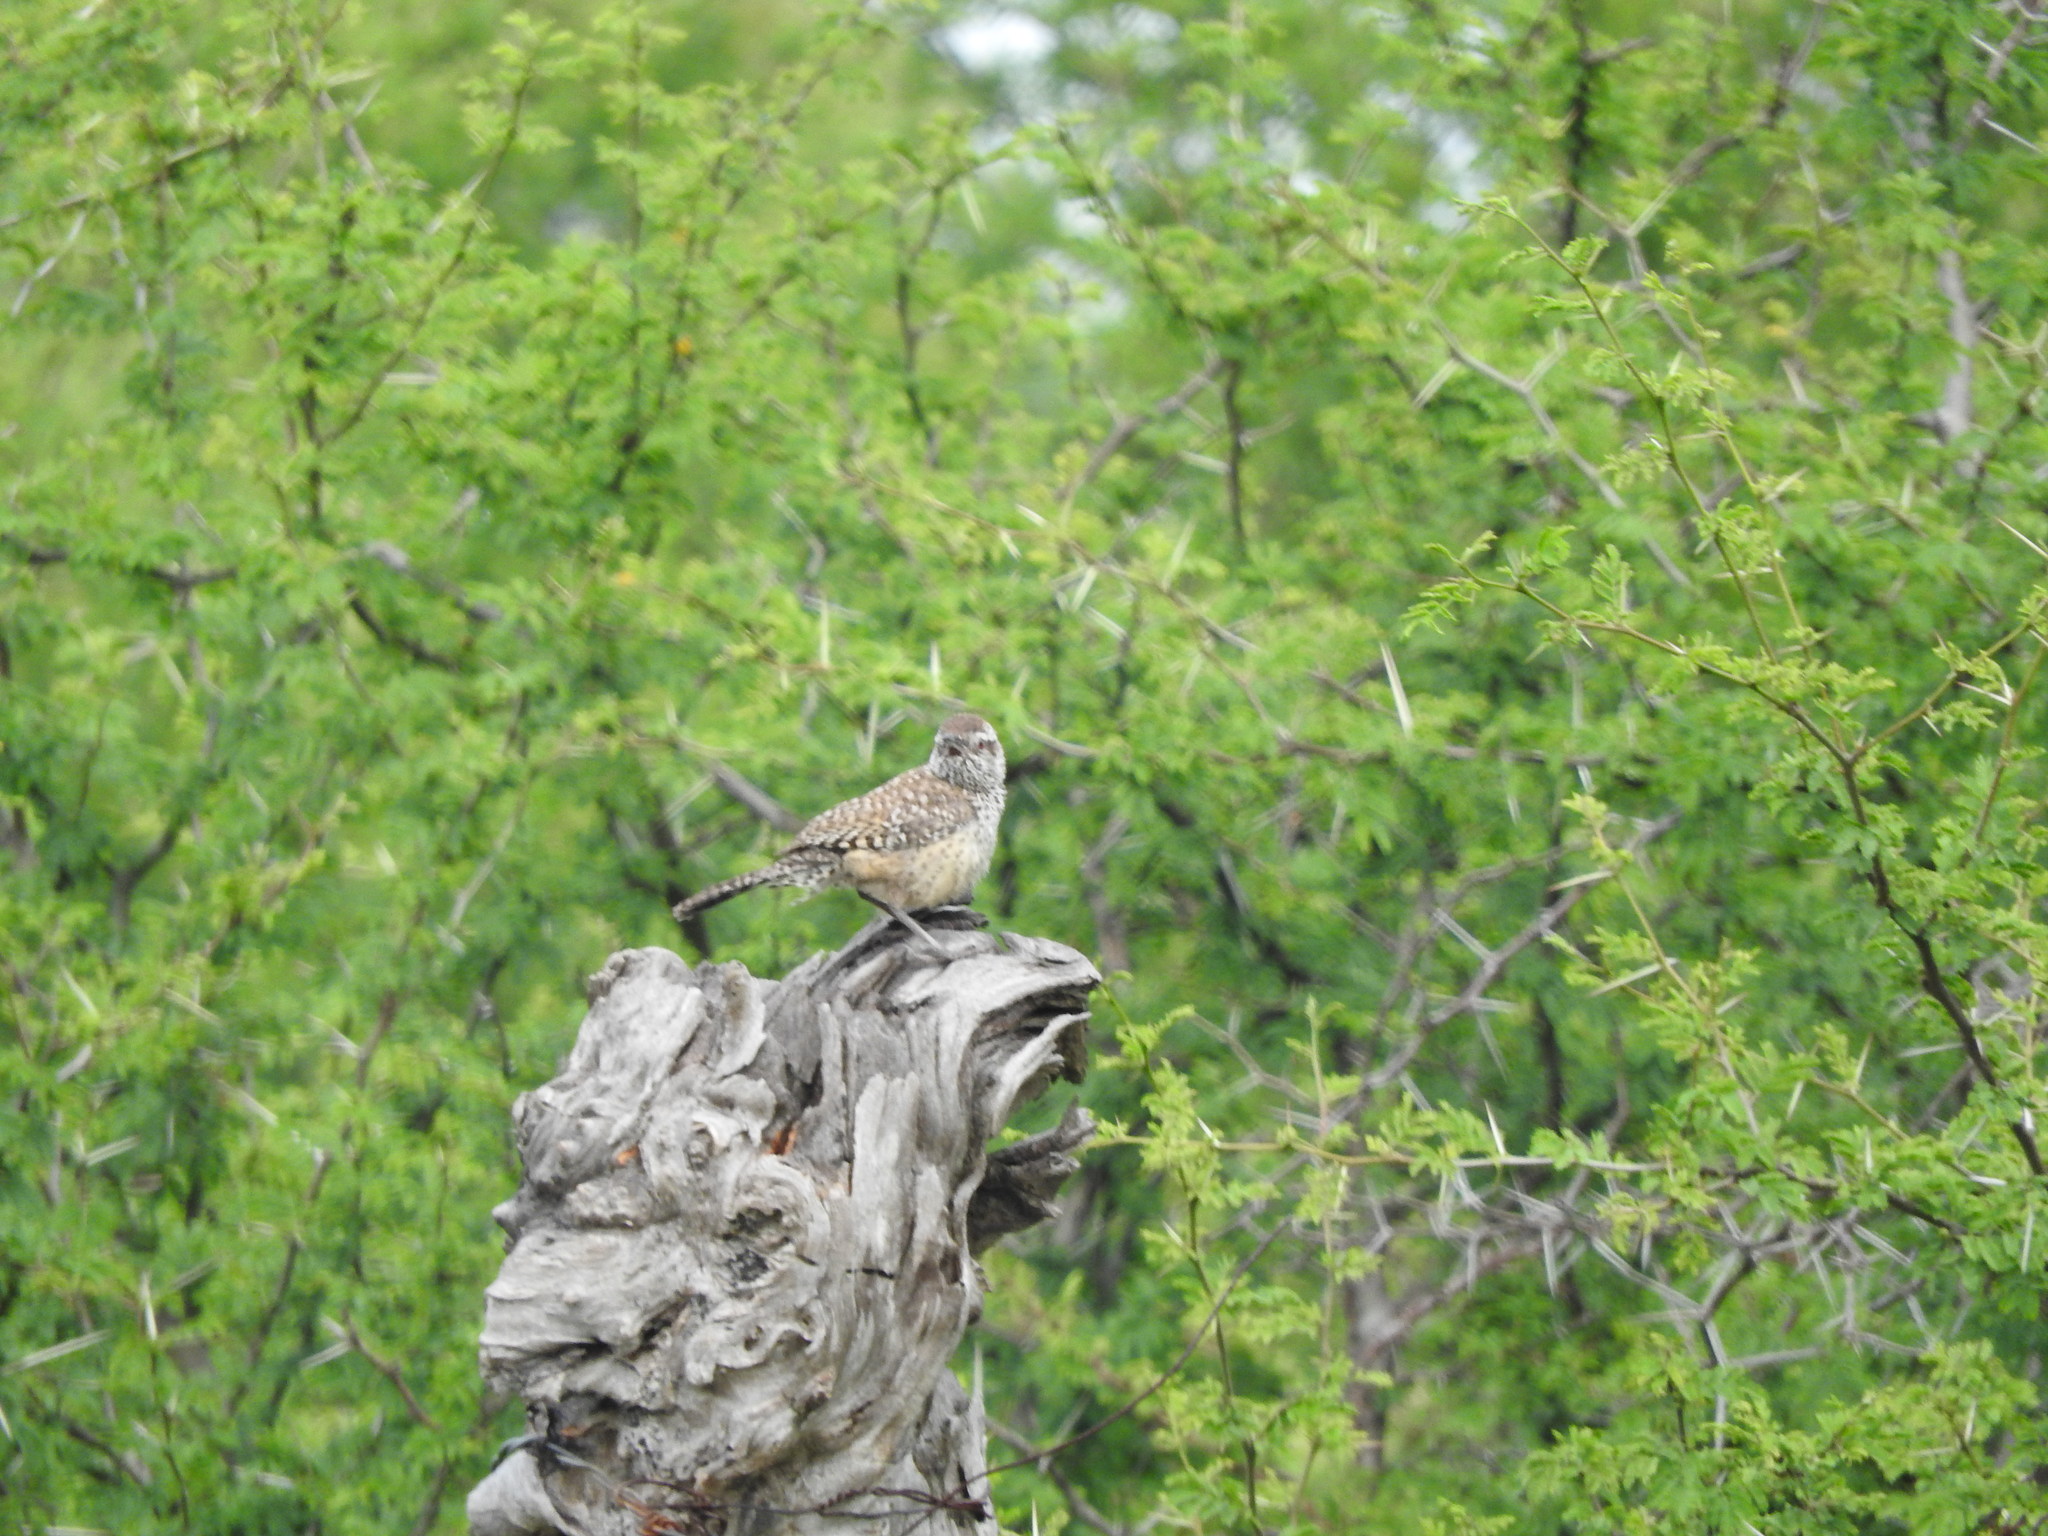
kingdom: Animalia
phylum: Chordata
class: Aves
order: Passeriformes
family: Troglodytidae
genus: Campylorhynchus
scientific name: Campylorhynchus brunneicapillus
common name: Cactus wren
